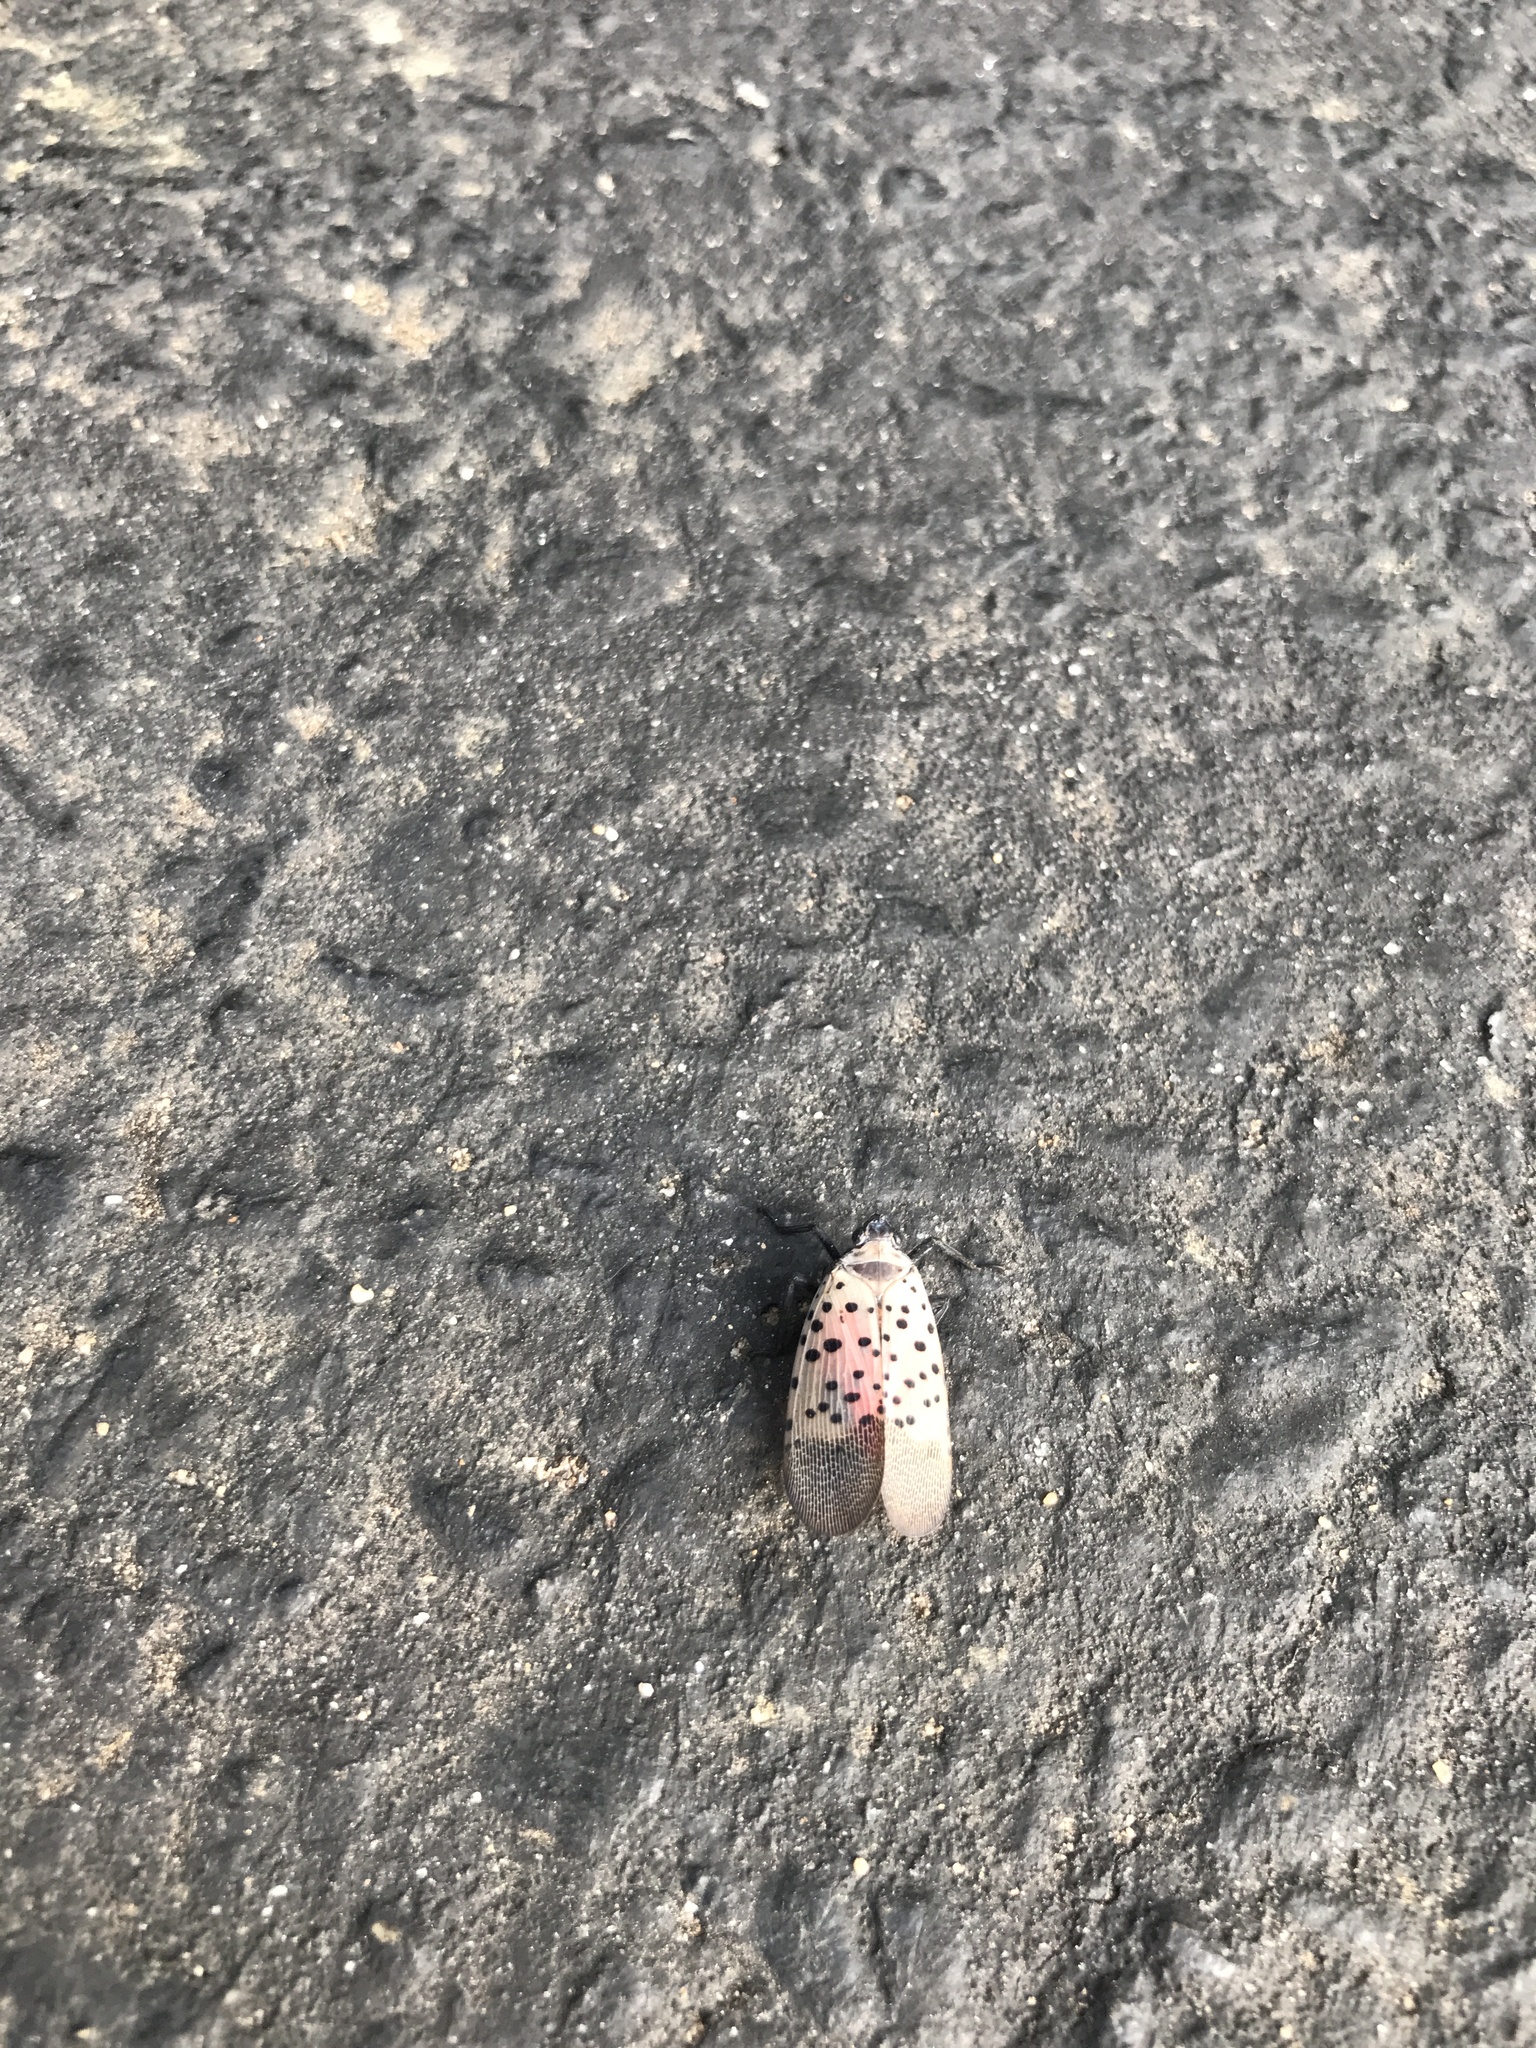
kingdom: Animalia
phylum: Arthropoda
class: Insecta
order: Hemiptera
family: Fulgoridae
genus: Lycorma
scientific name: Lycorma delicatula
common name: Spotted lanternfly
